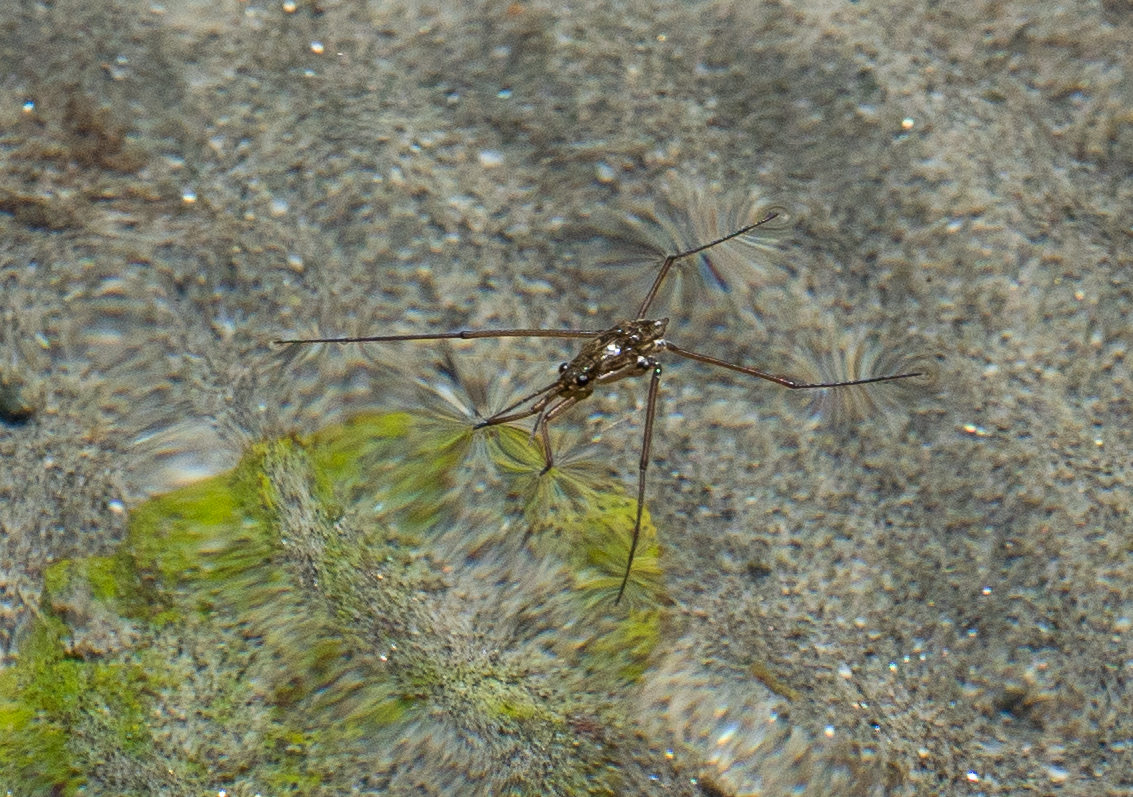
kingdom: Animalia
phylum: Arthropoda
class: Insecta
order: Hemiptera
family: Gerridae
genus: Aquarius
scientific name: Aquarius remigis
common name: Common water strider
